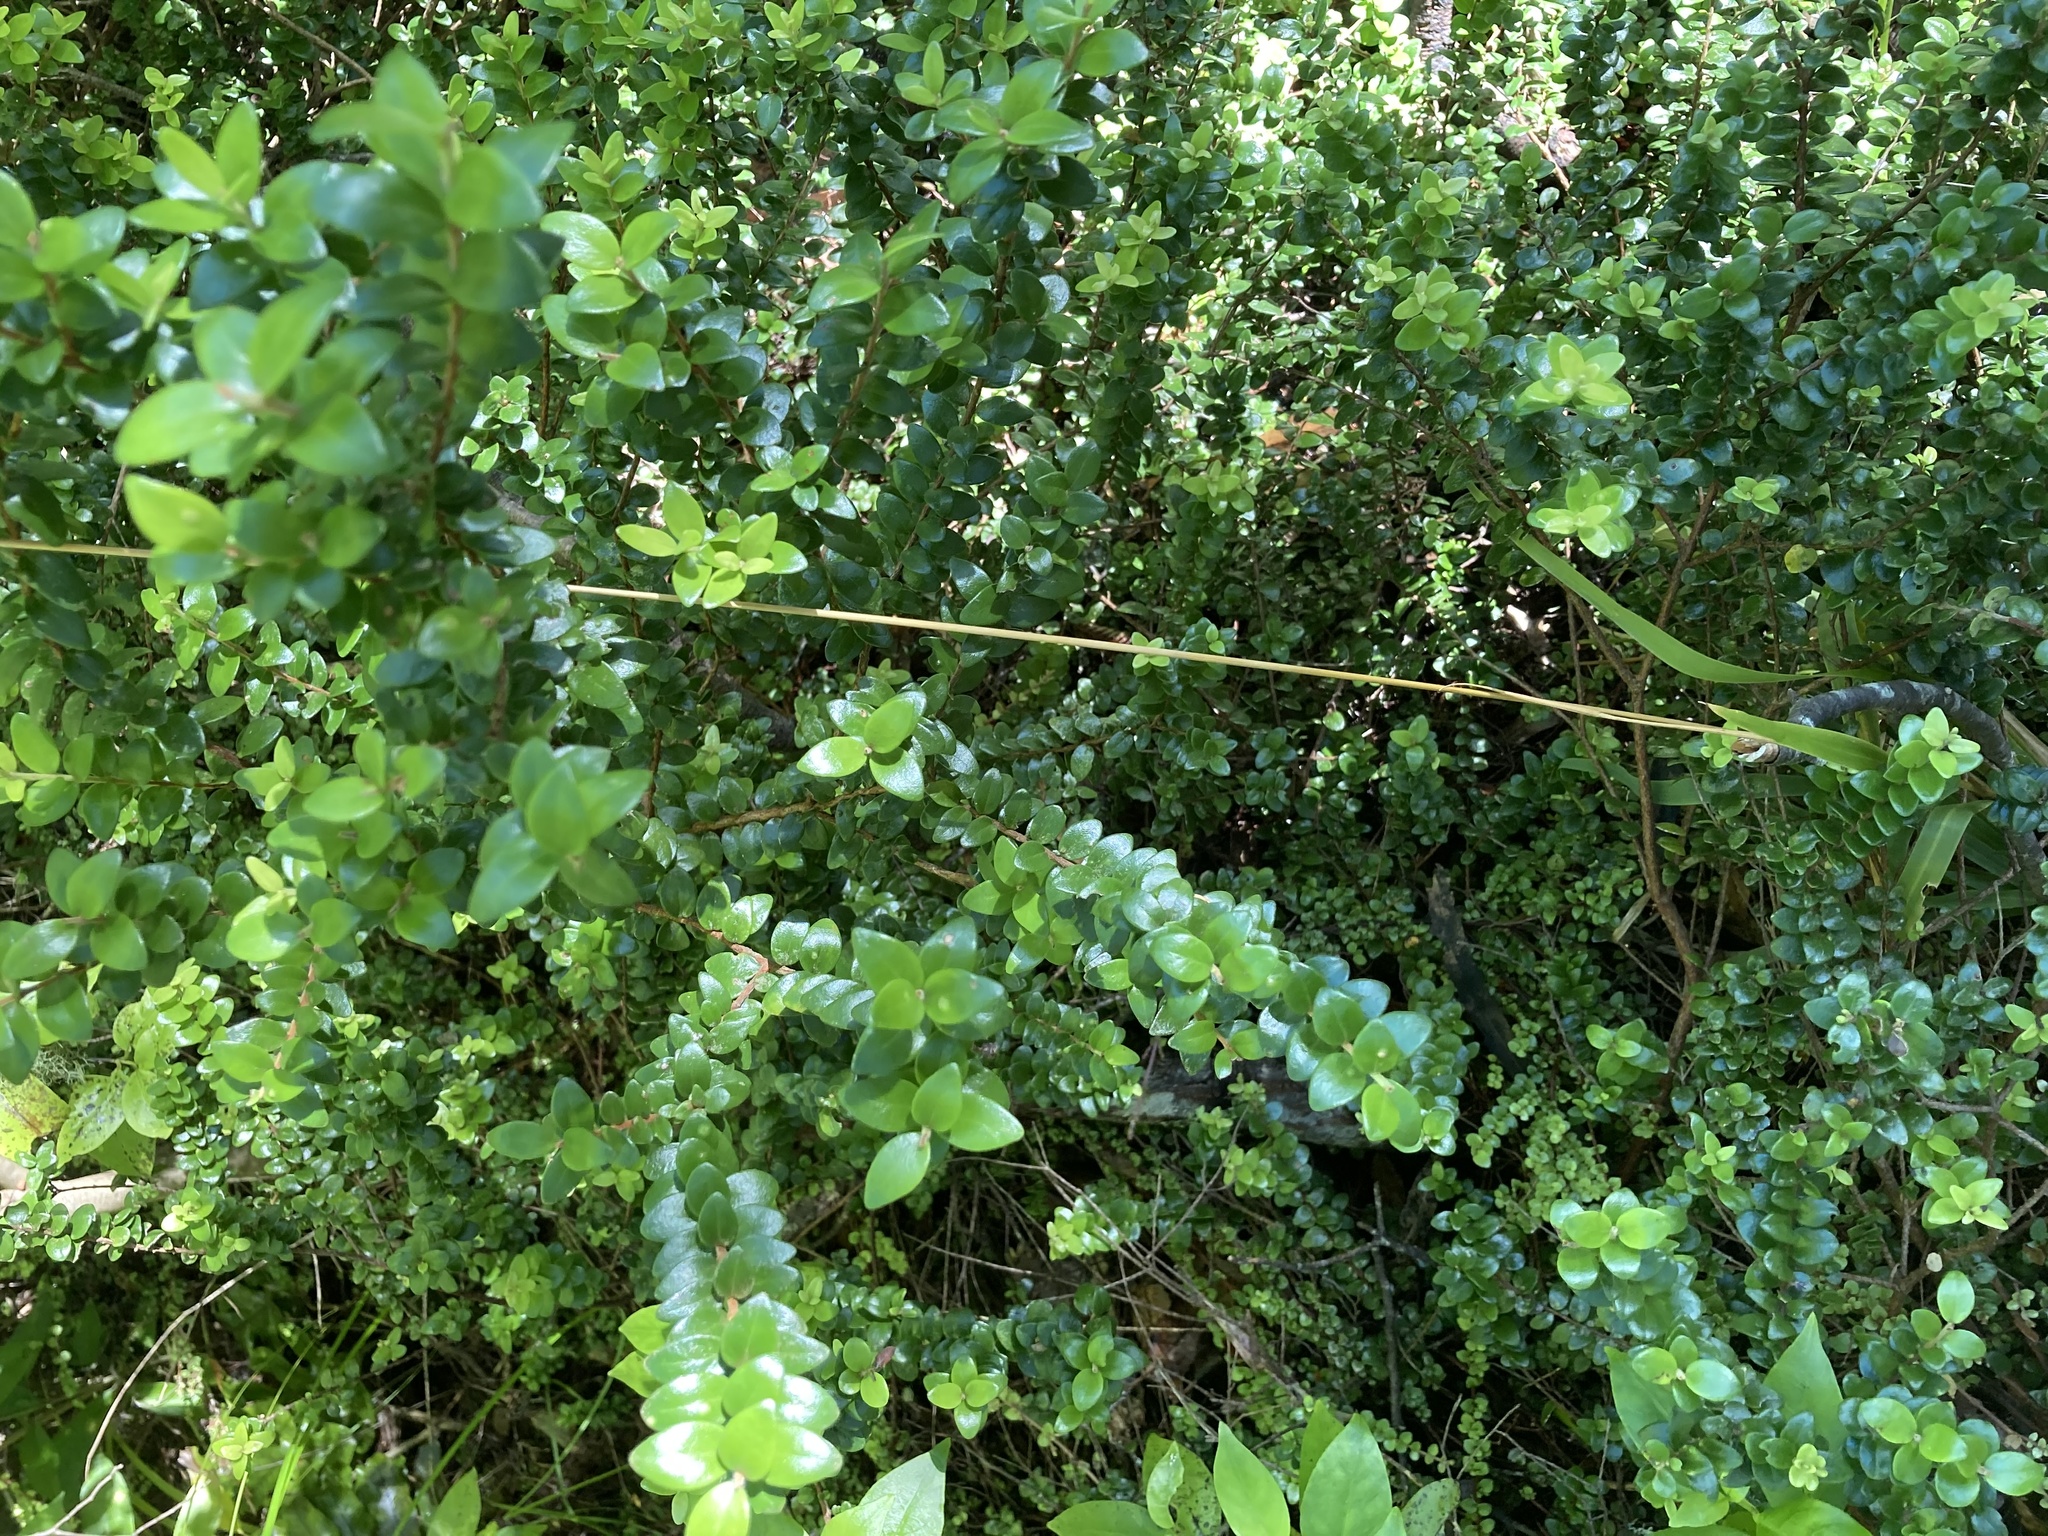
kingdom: Plantae
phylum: Tracheophyta
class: Magnoliopsida
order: Myrtales
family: Myrtaceae
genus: Metrosideros
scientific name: Metrosideros perforata
